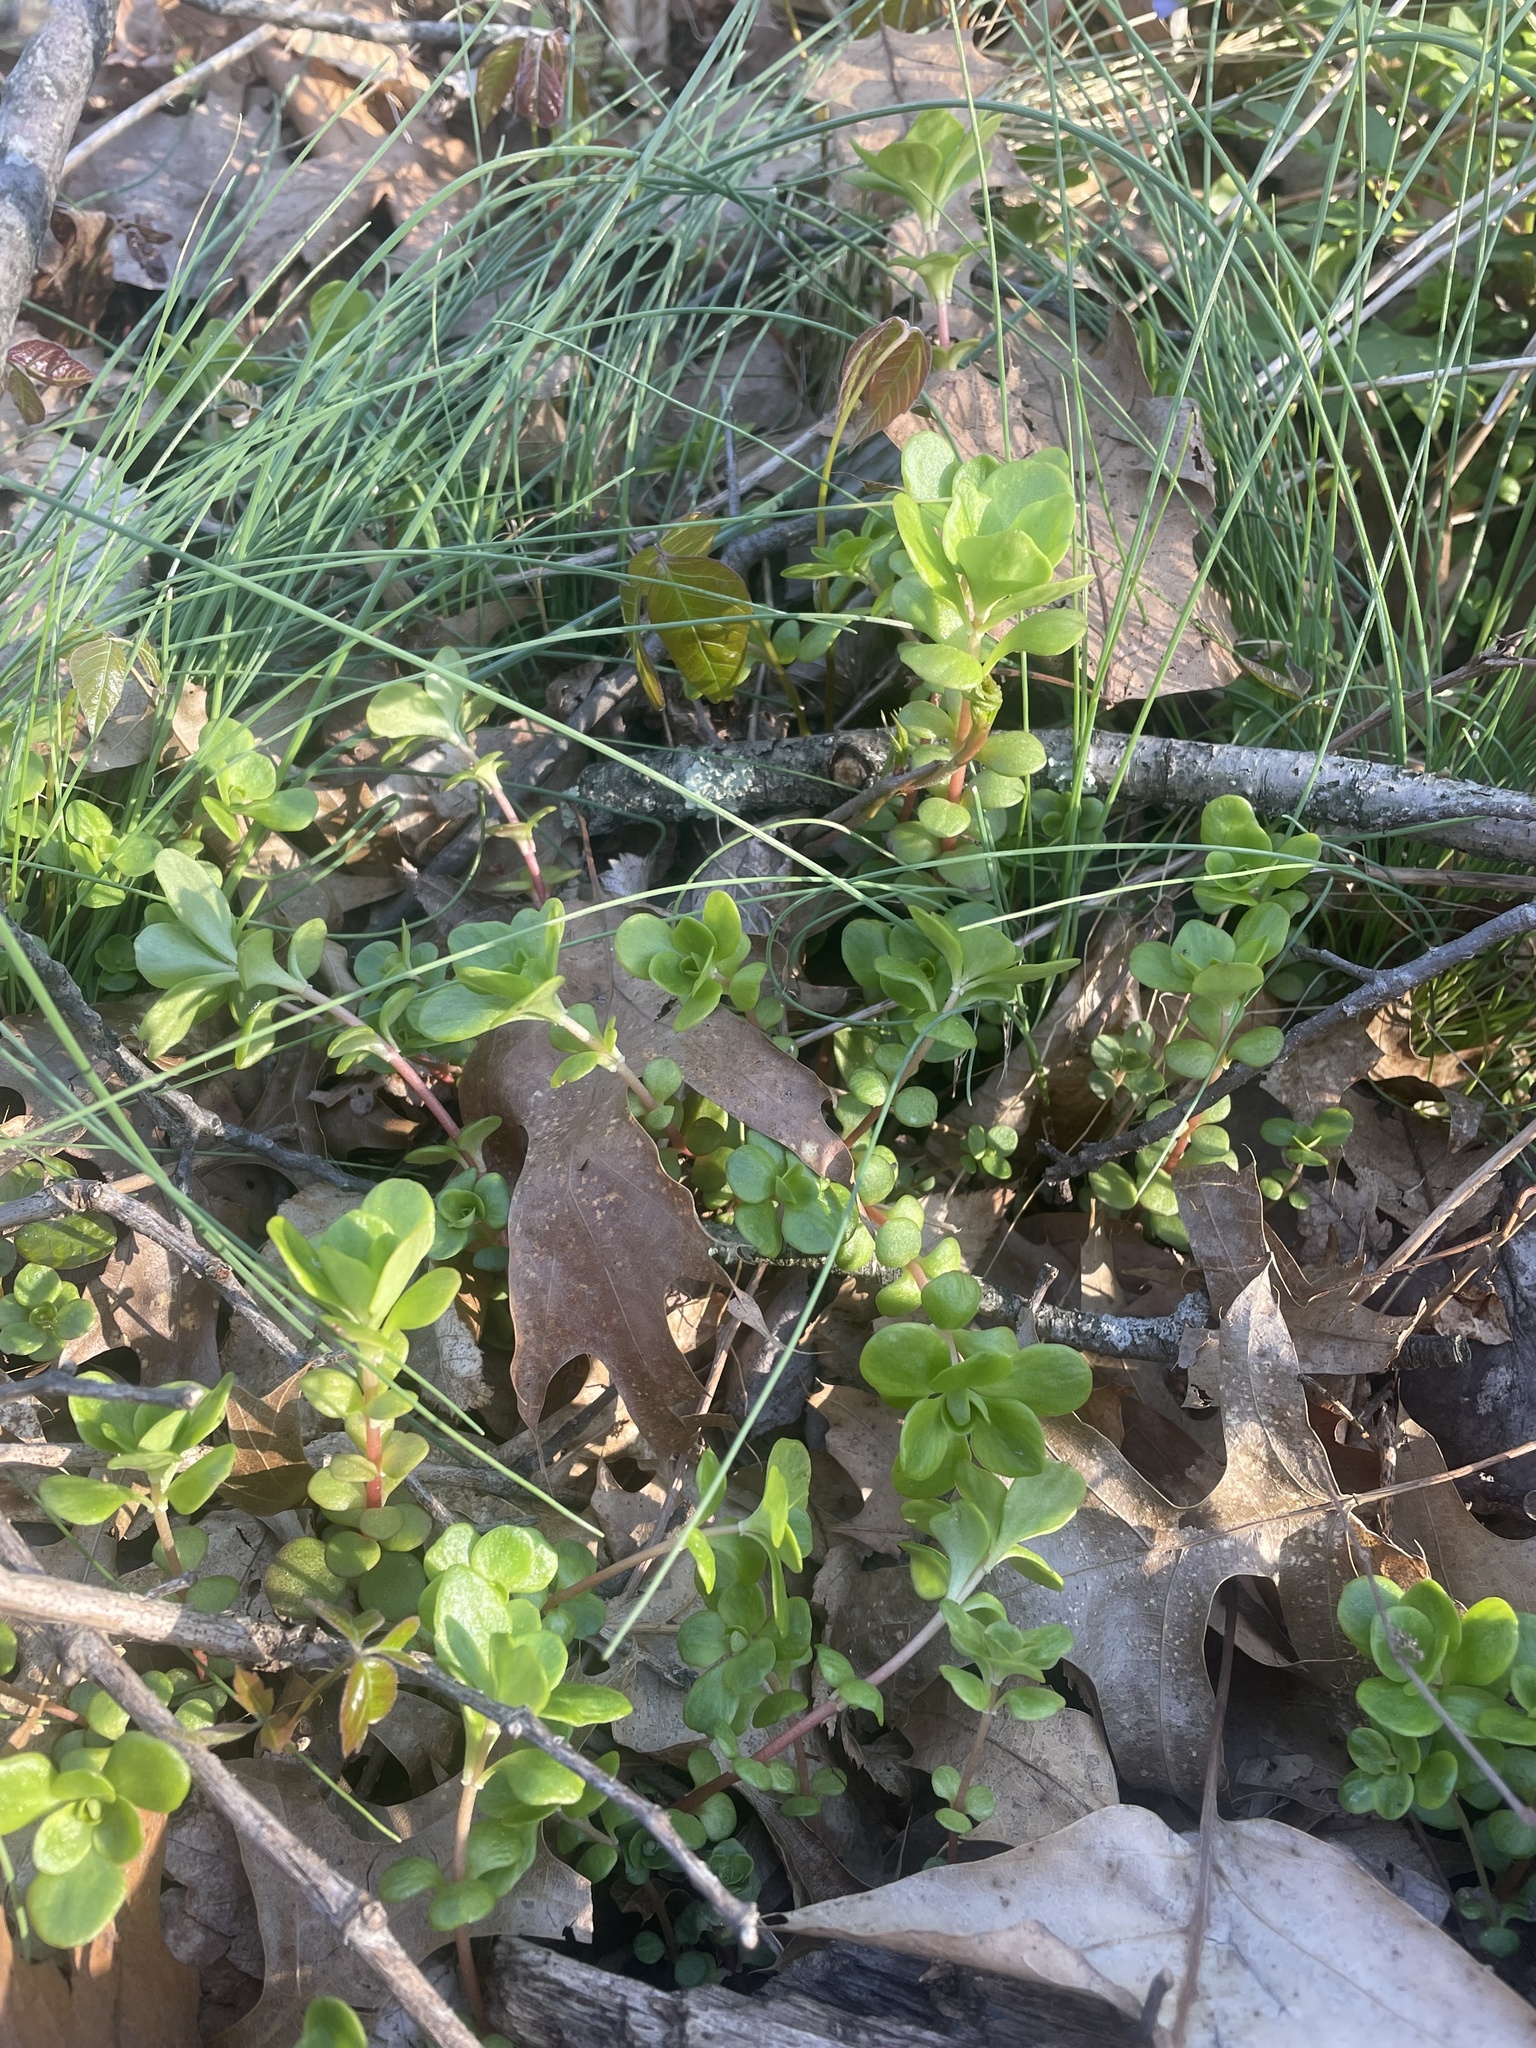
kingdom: Plantae
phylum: Tracheophyta
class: Magnoliopsida
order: Saxifragales
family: Crassulaceae
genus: Sedum
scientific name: Sedum ternatum
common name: Wild stonecrop
